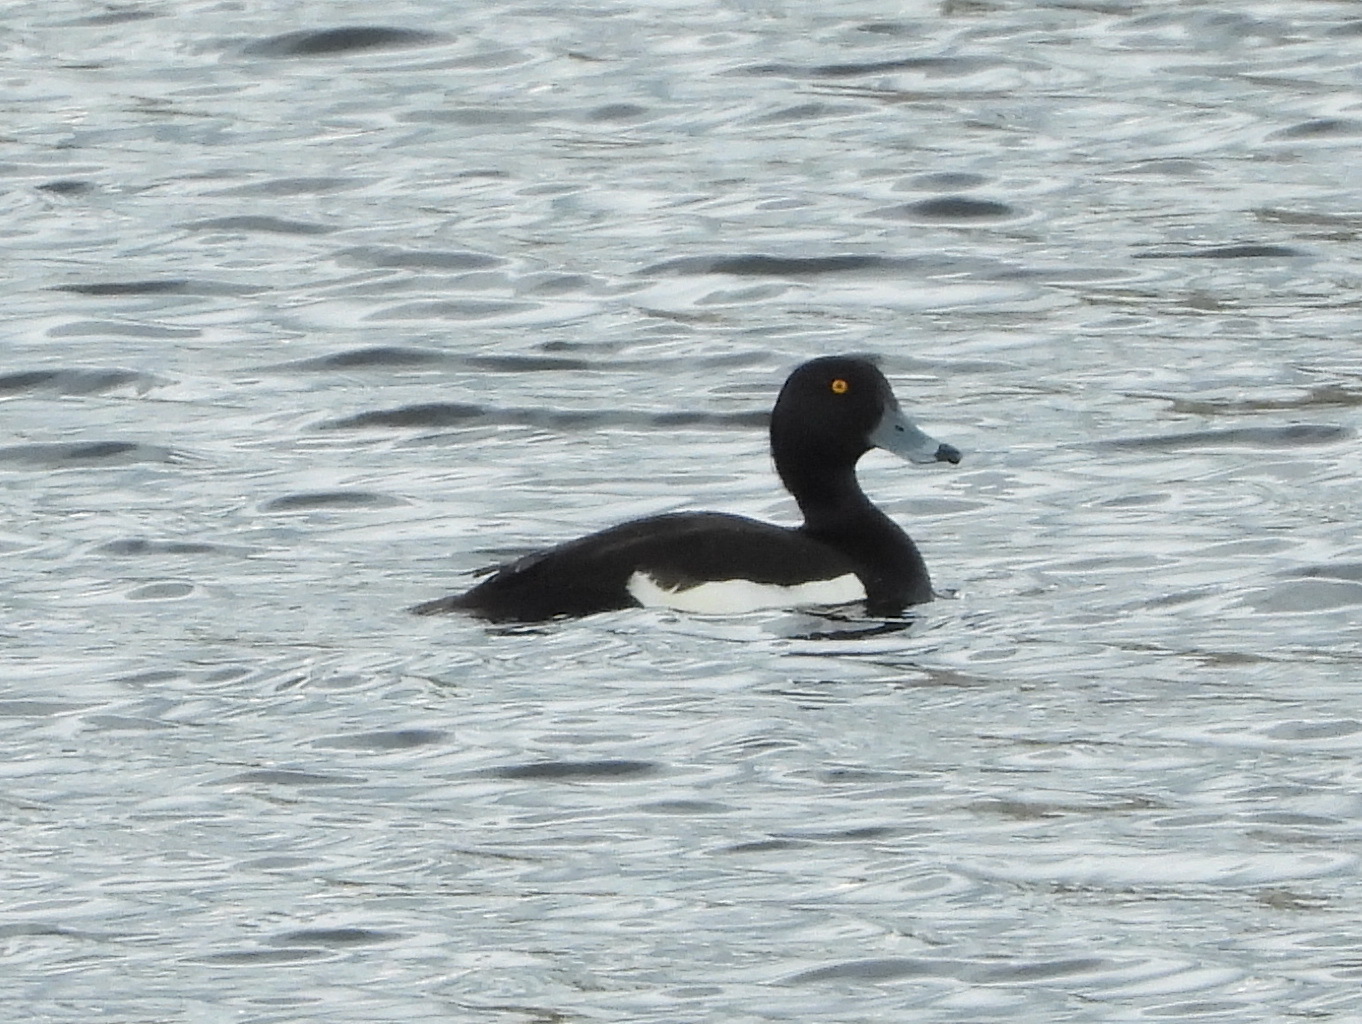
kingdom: Animalia
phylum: Chordata
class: Aves
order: Anseriformes
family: Anatidae
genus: Aythya
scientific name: Aythya fuligula
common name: Tufted duck
